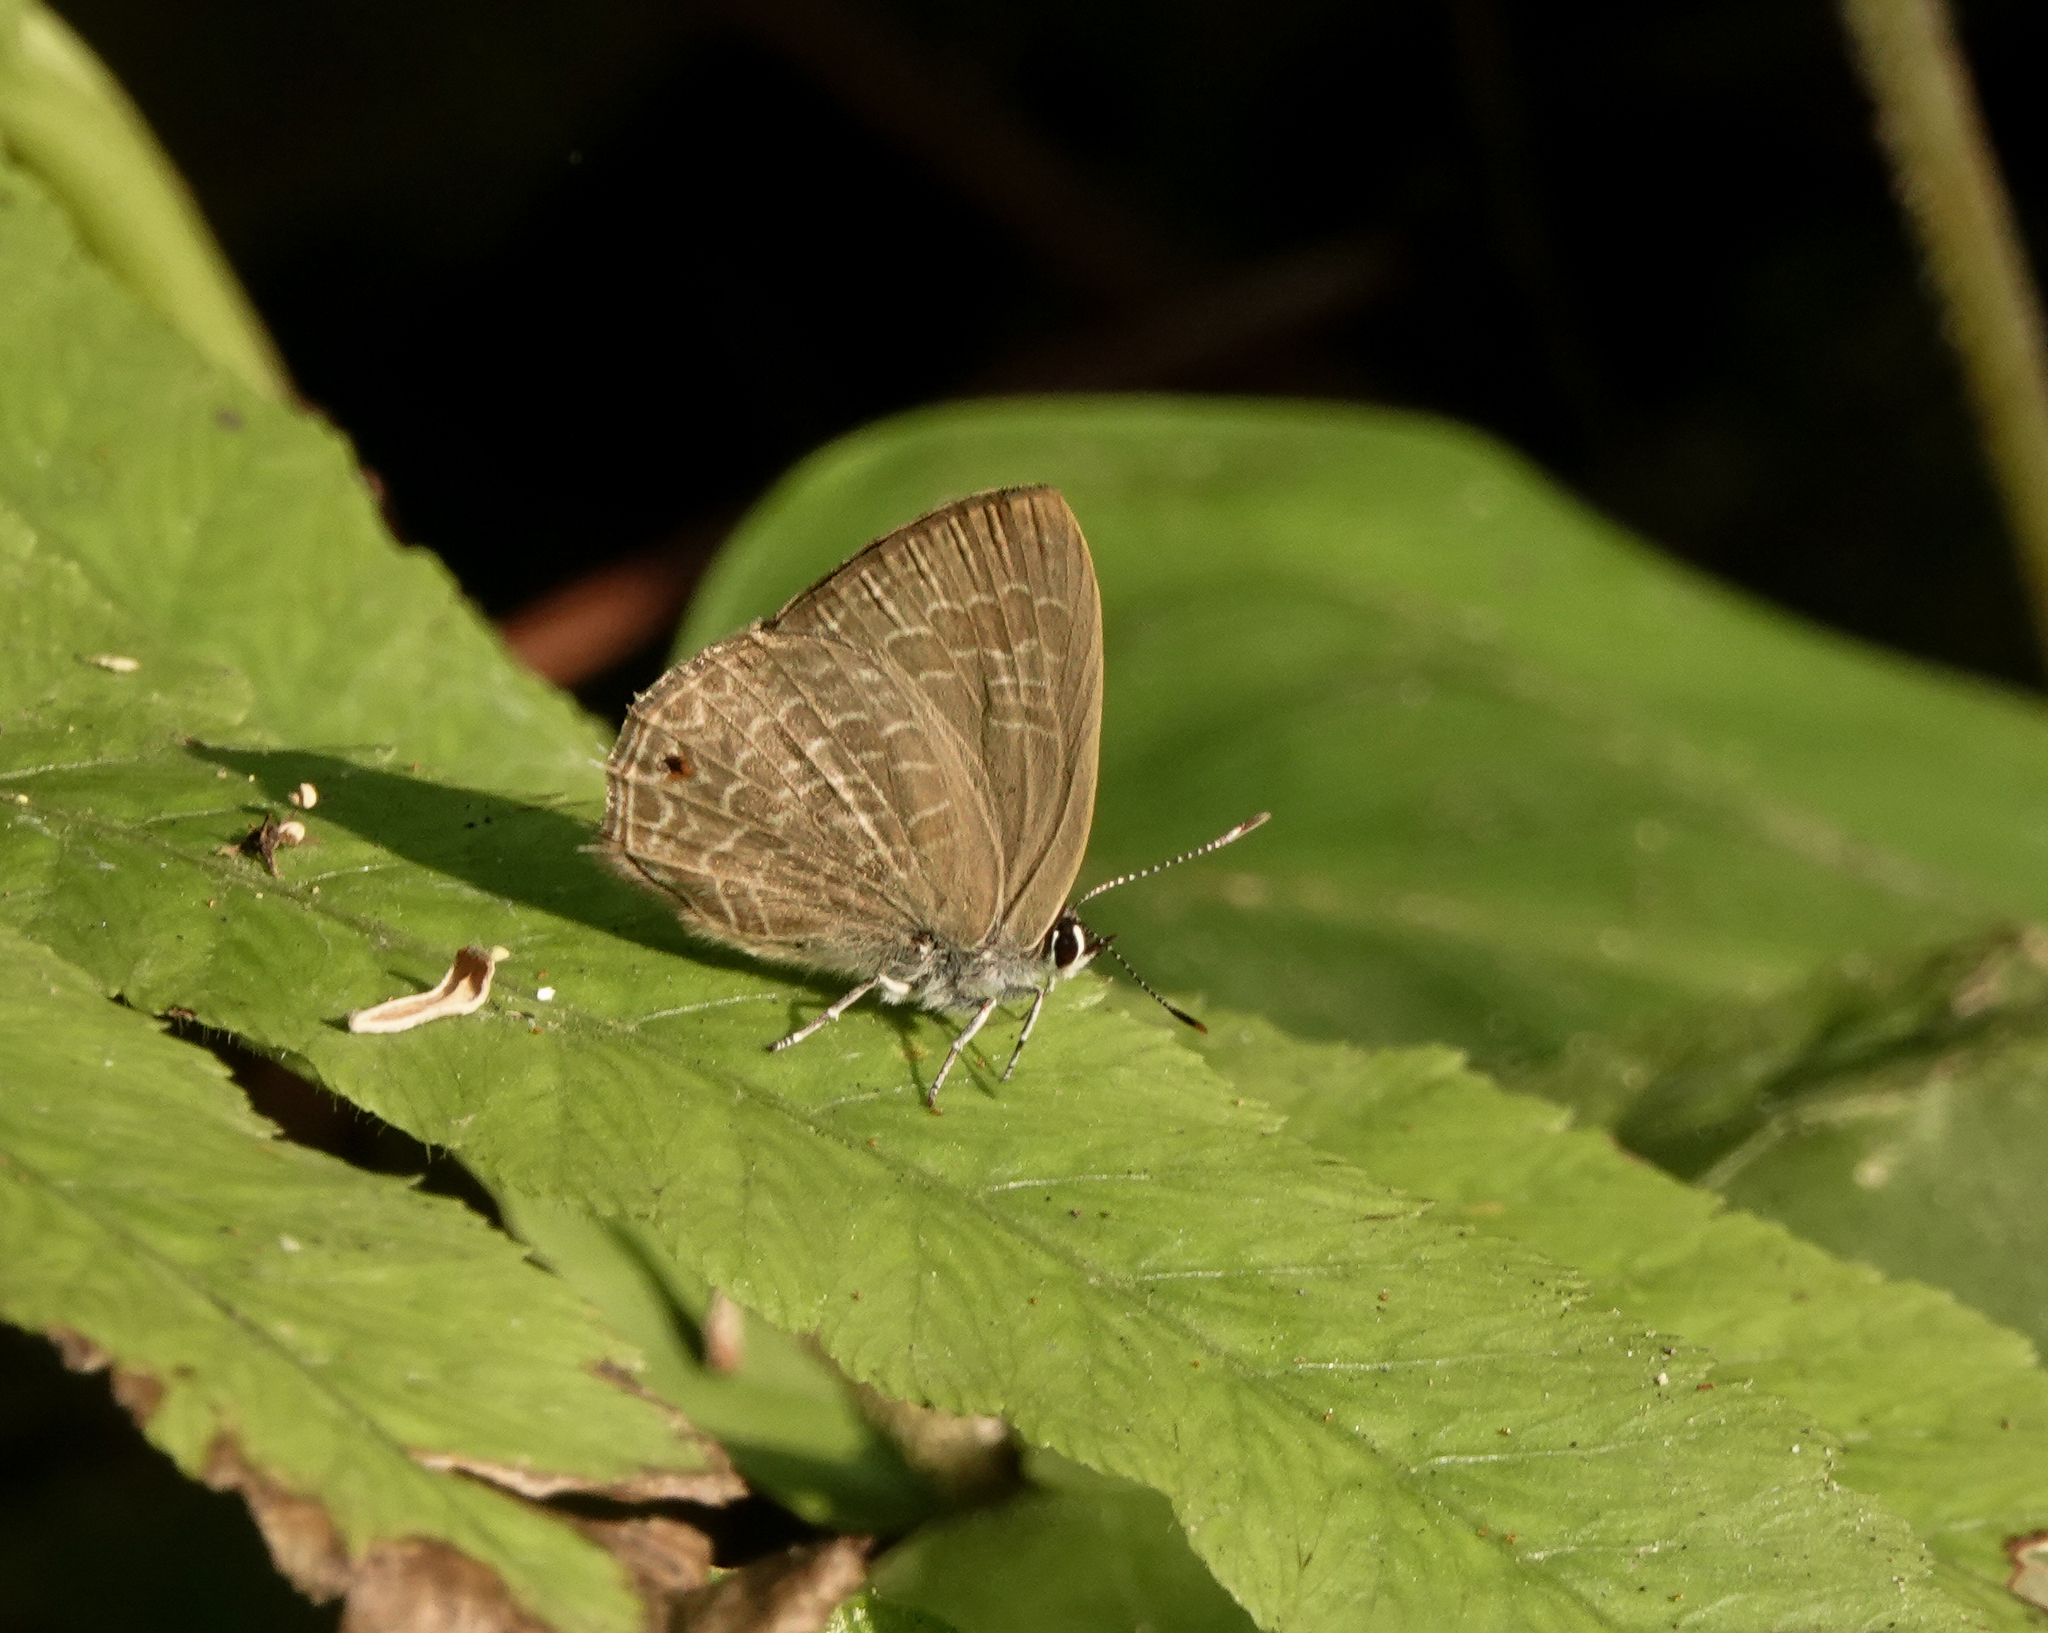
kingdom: Animalia
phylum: Arthropoda
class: Insecta
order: Lepidoptera
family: Lycaenidae
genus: Anthene
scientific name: Anthene emolus
